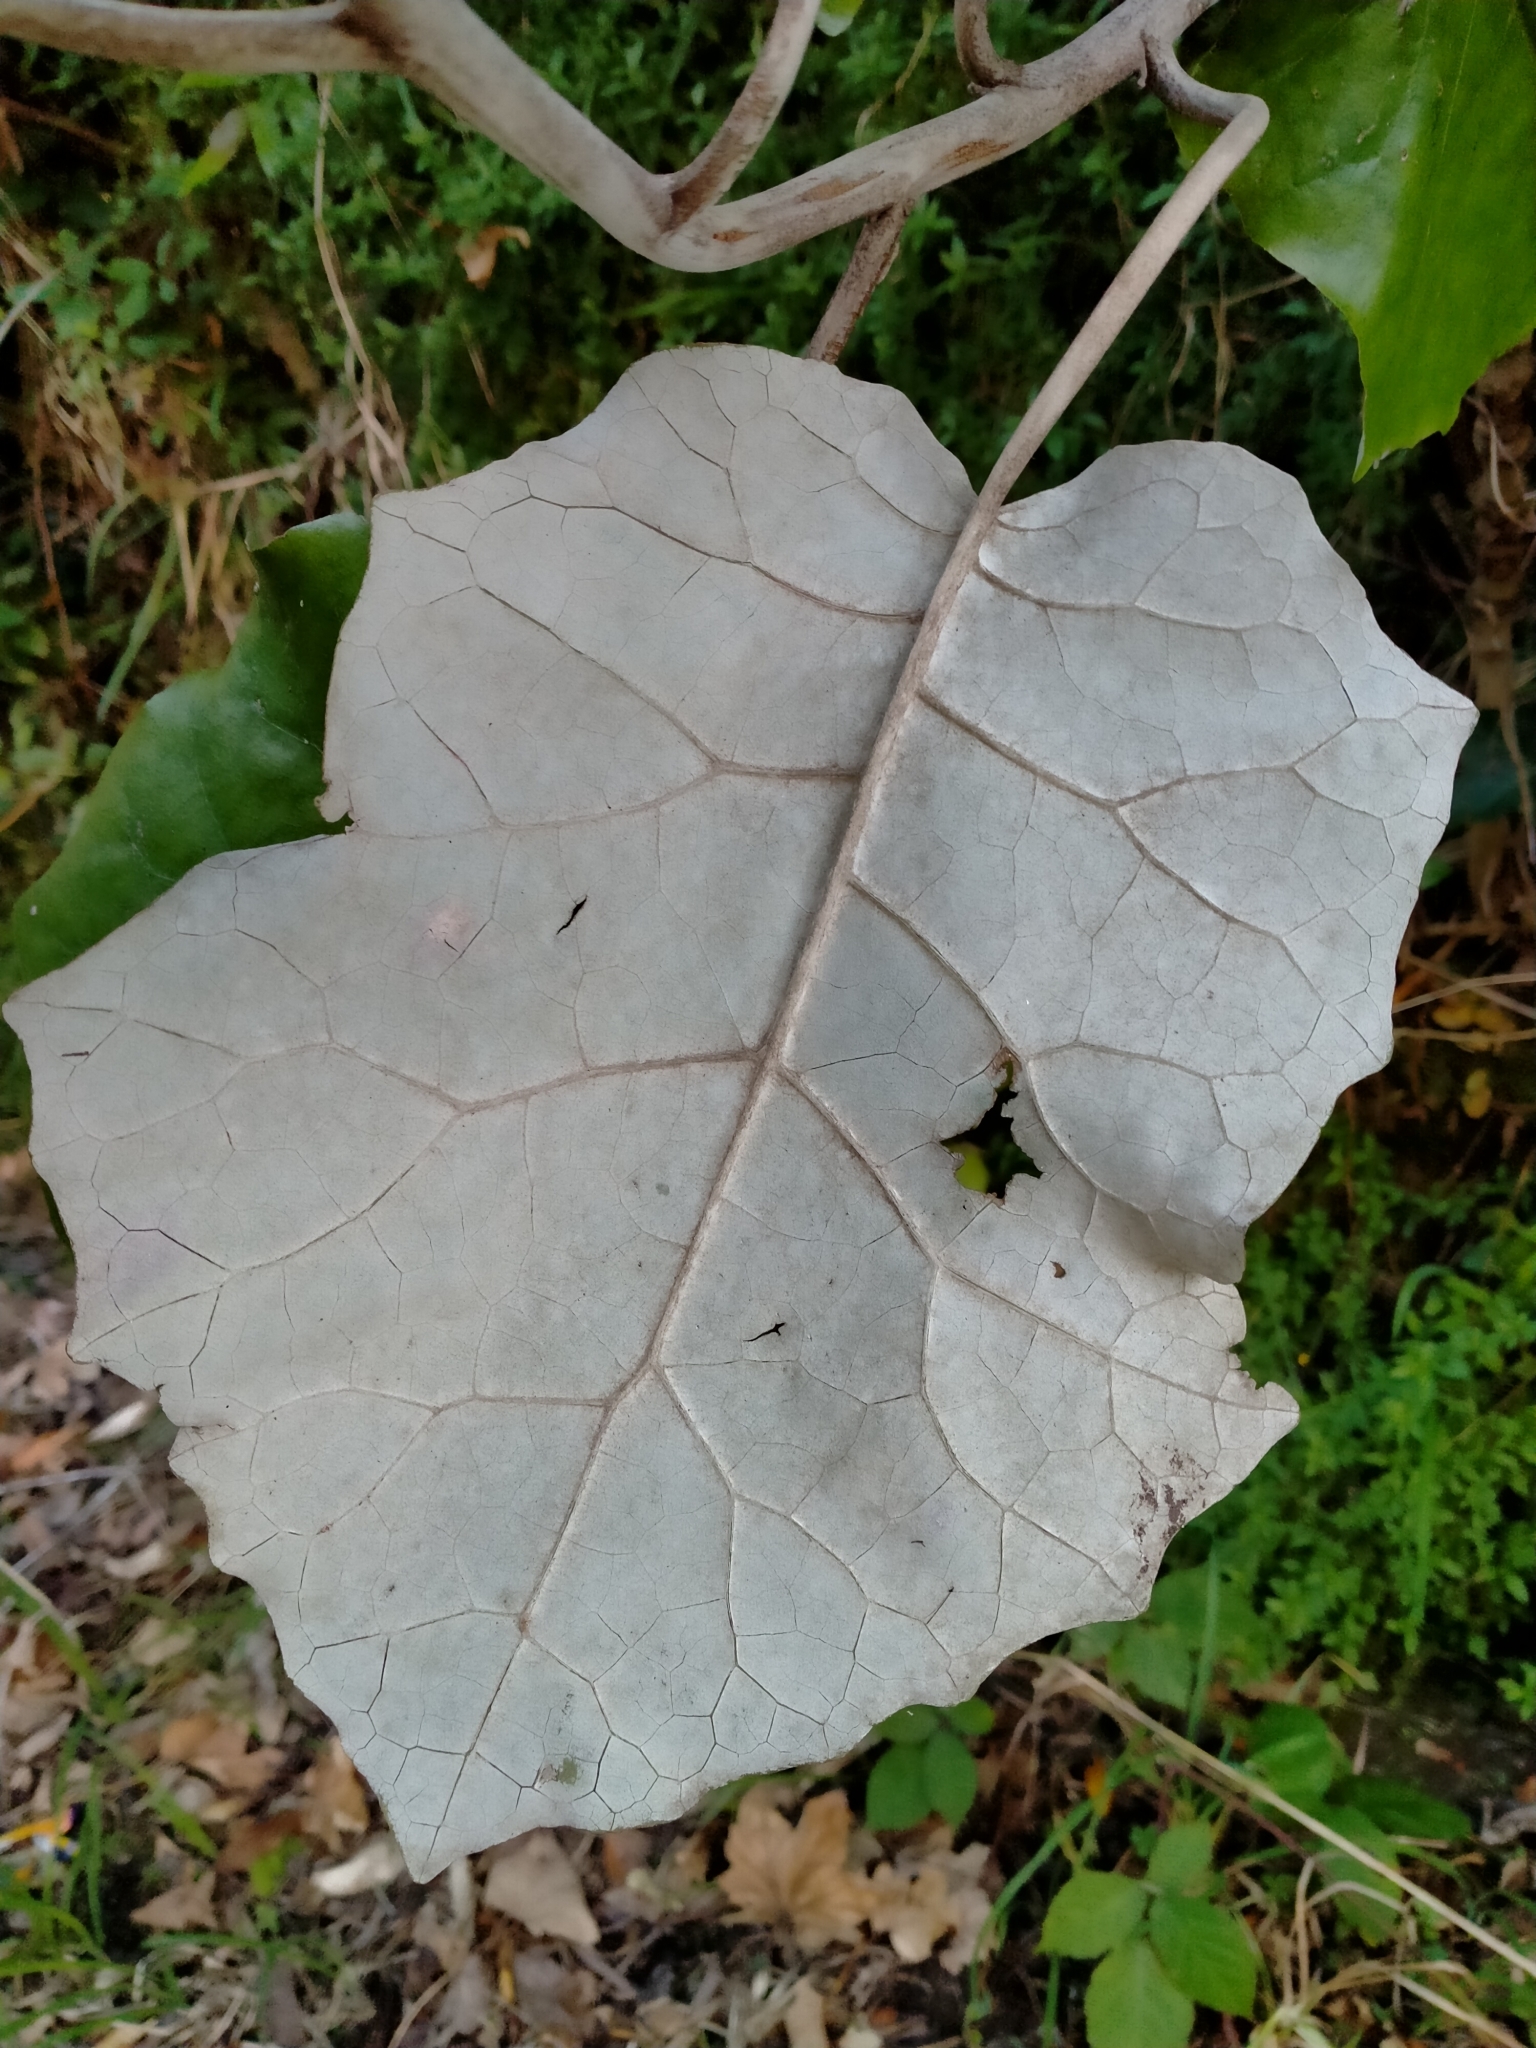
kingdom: Plantae
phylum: Tracheophyta
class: Magnoliopsida
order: Asterales
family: Asteraceae
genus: Brachyglottis
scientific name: Brachyglottis repanda
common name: Hedge ragwort
